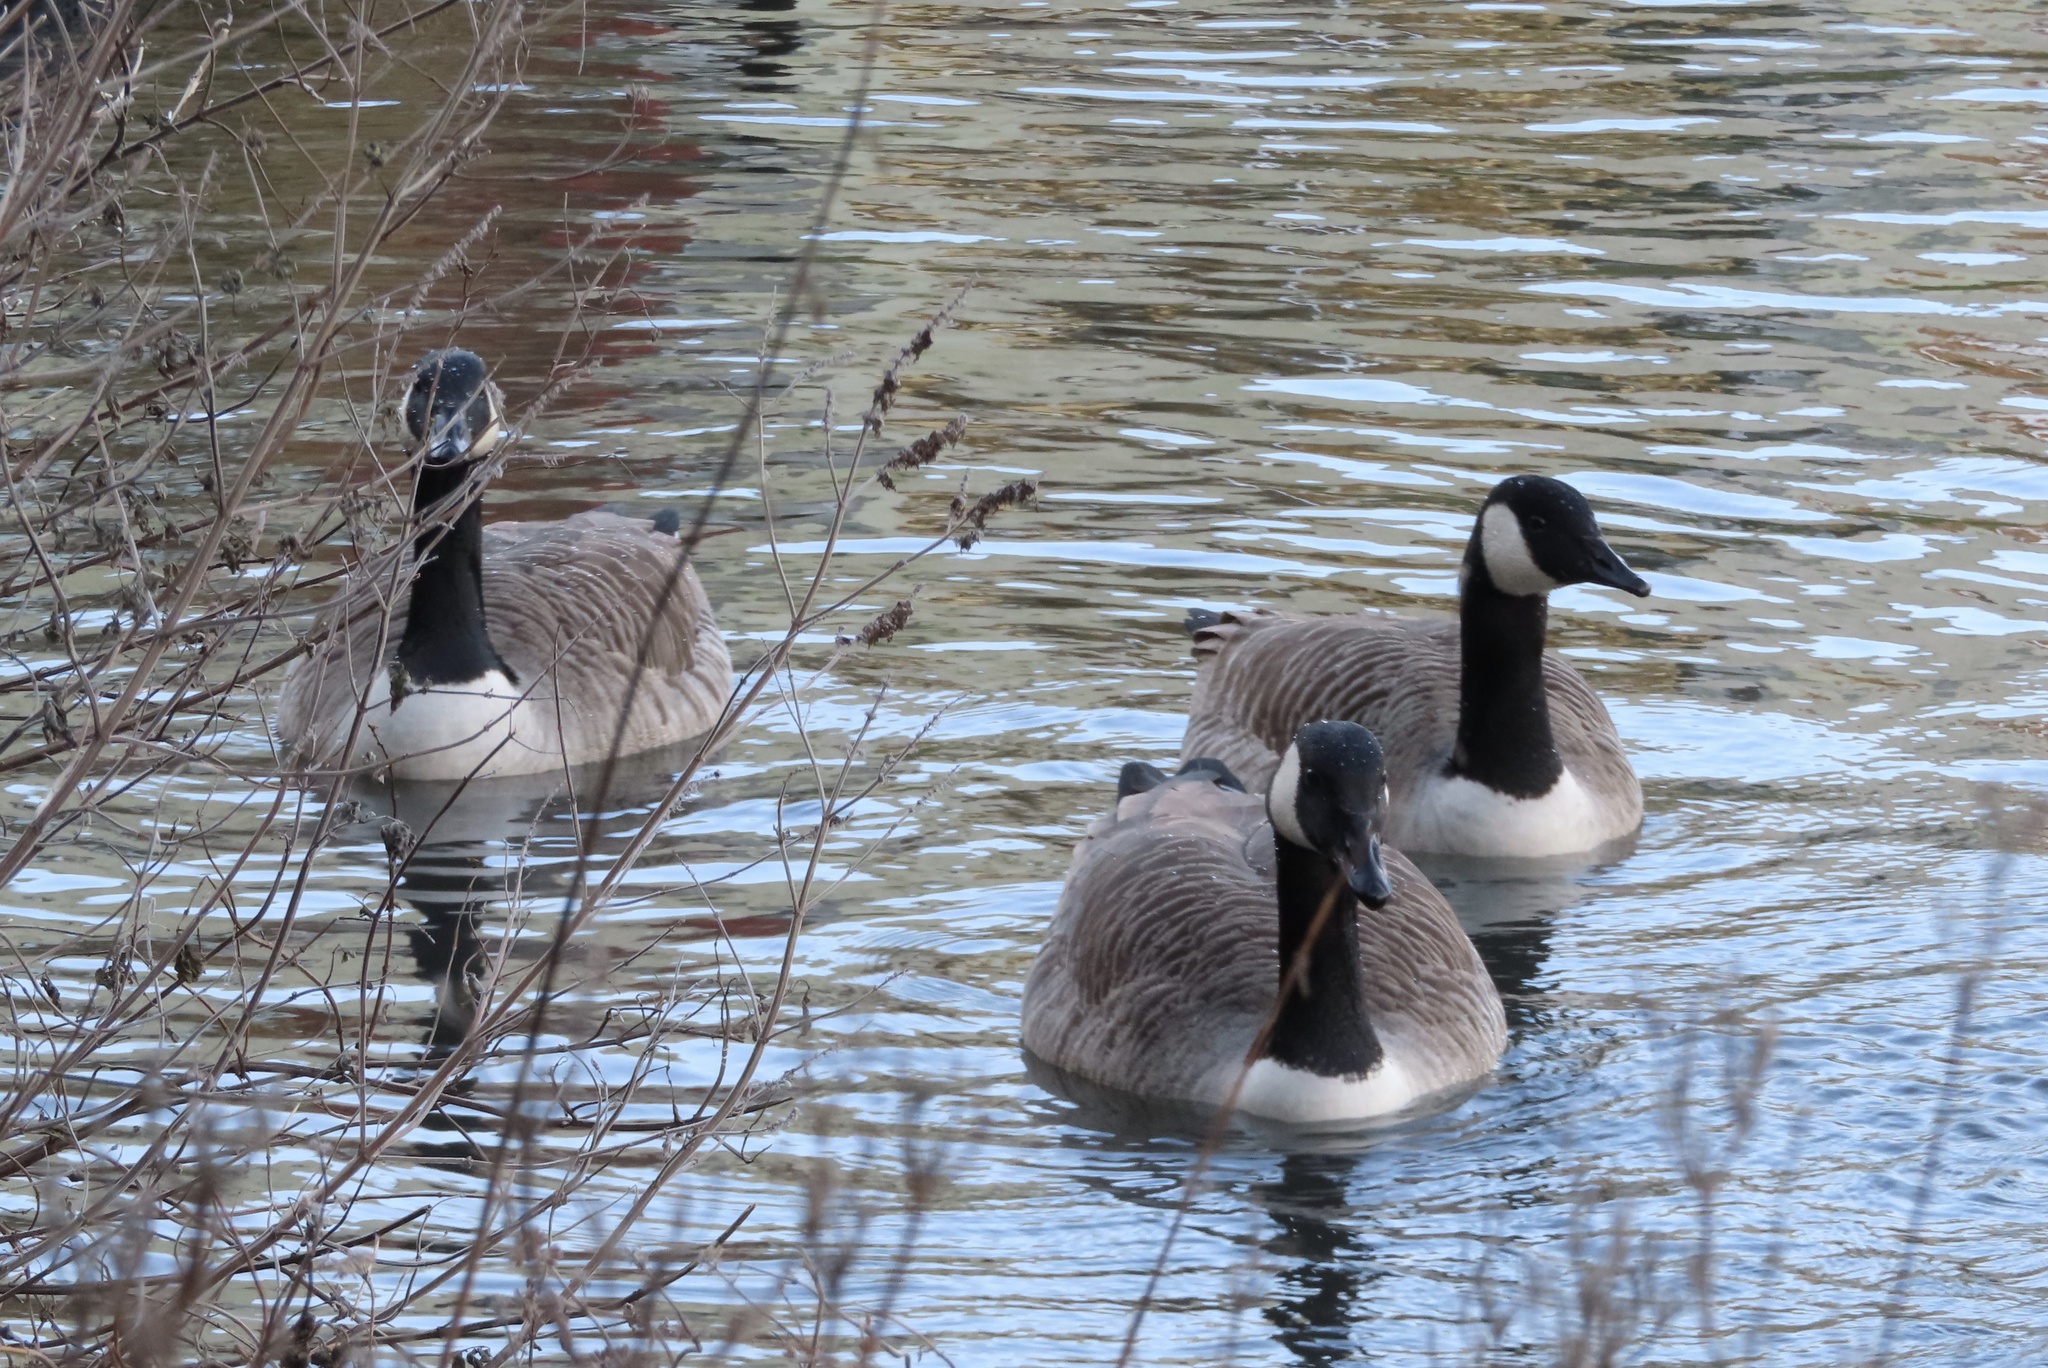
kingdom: Animalia
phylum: Chordata
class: Aves
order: Anseriformes
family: Anatidae
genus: Branta
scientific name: Branta canadensis
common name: Canada goose
